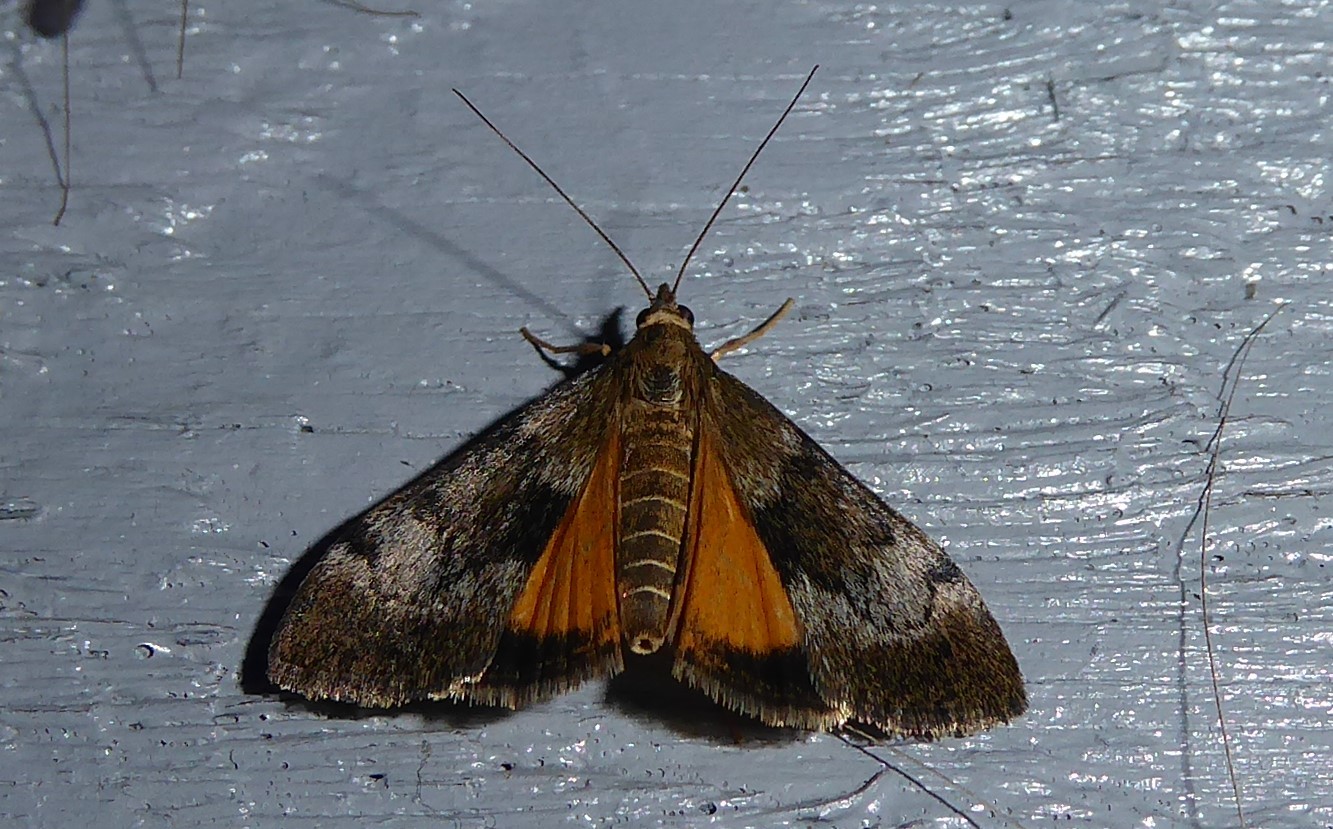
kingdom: Animalia
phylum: Arthropoda
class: Insecta
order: Lepidoptera
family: Crambidae
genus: Uresiphita
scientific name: Uresiphita
